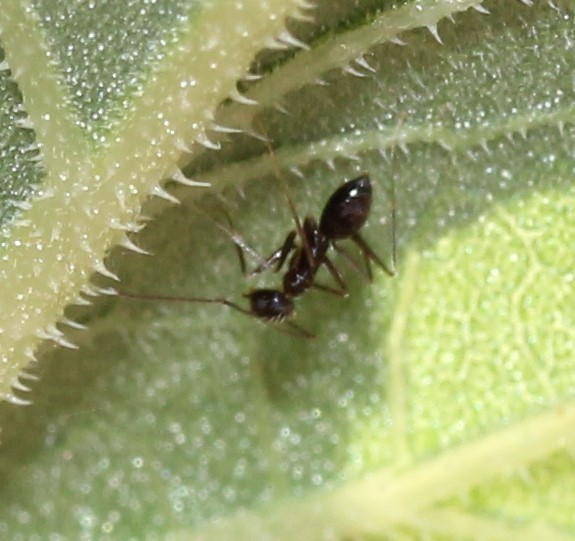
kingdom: Animalia
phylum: Arthropoda
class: Insecta
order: Hymenoptera
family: Formicidae
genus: Paratrechina
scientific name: Paratrechina longicornis
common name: Longhorned crazy ant
